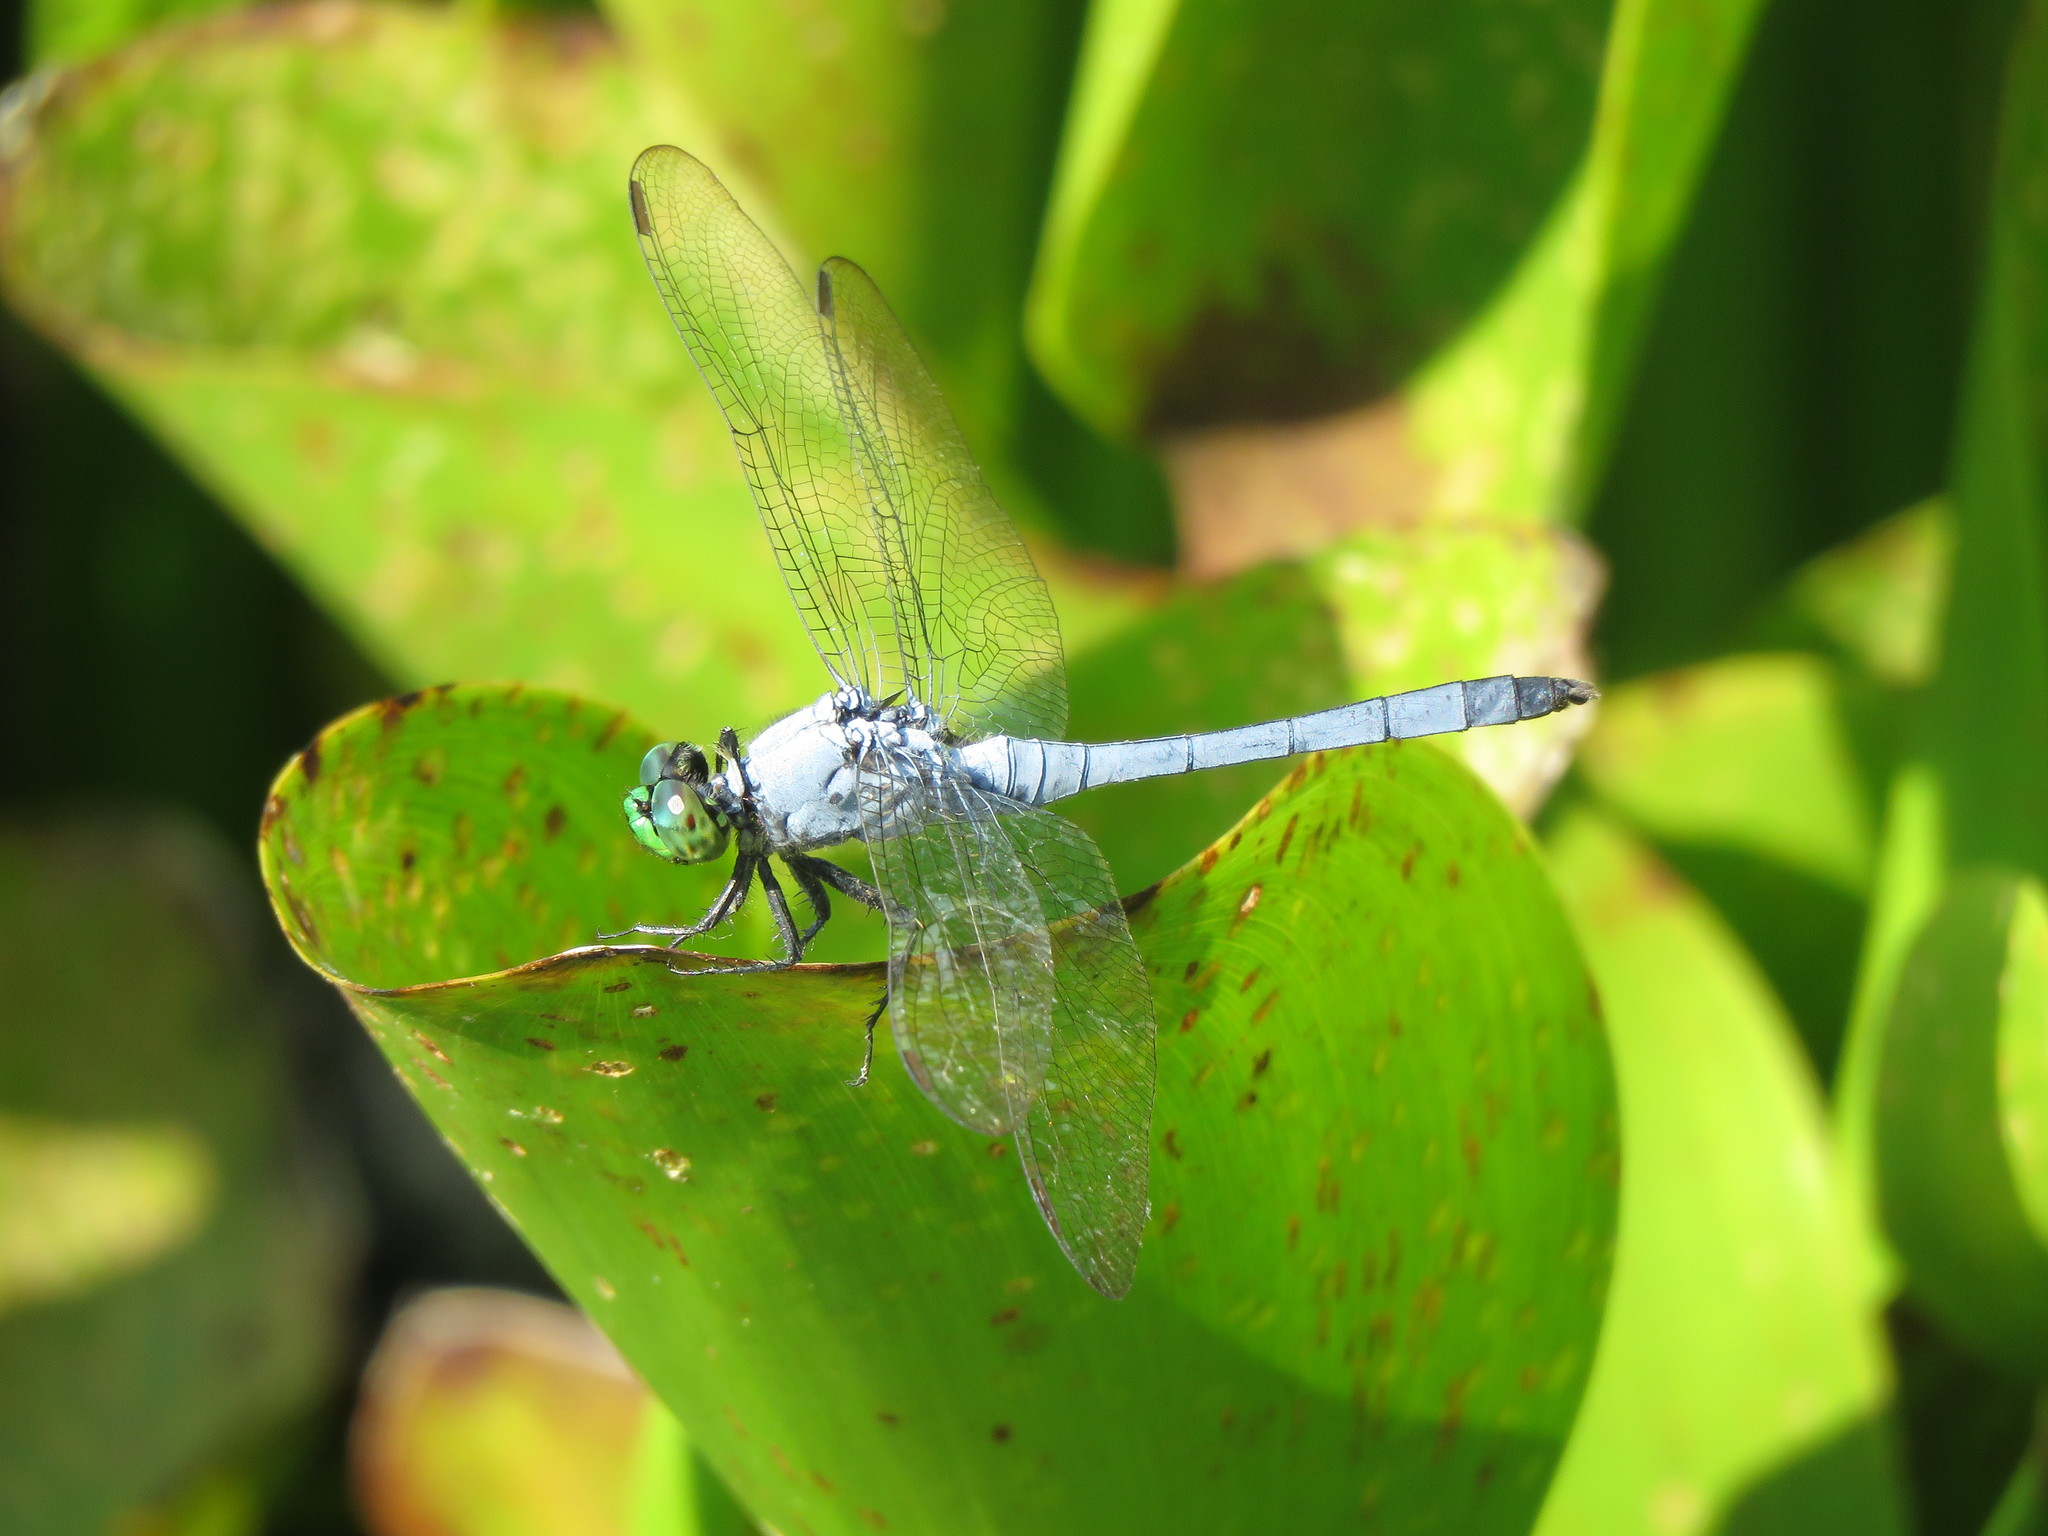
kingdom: Animalia
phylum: Arthropoda
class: Insecta
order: Odonata
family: Libellulidae
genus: Erythemis
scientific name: Erythemis simplicicollis
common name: Eastern pondhawk
